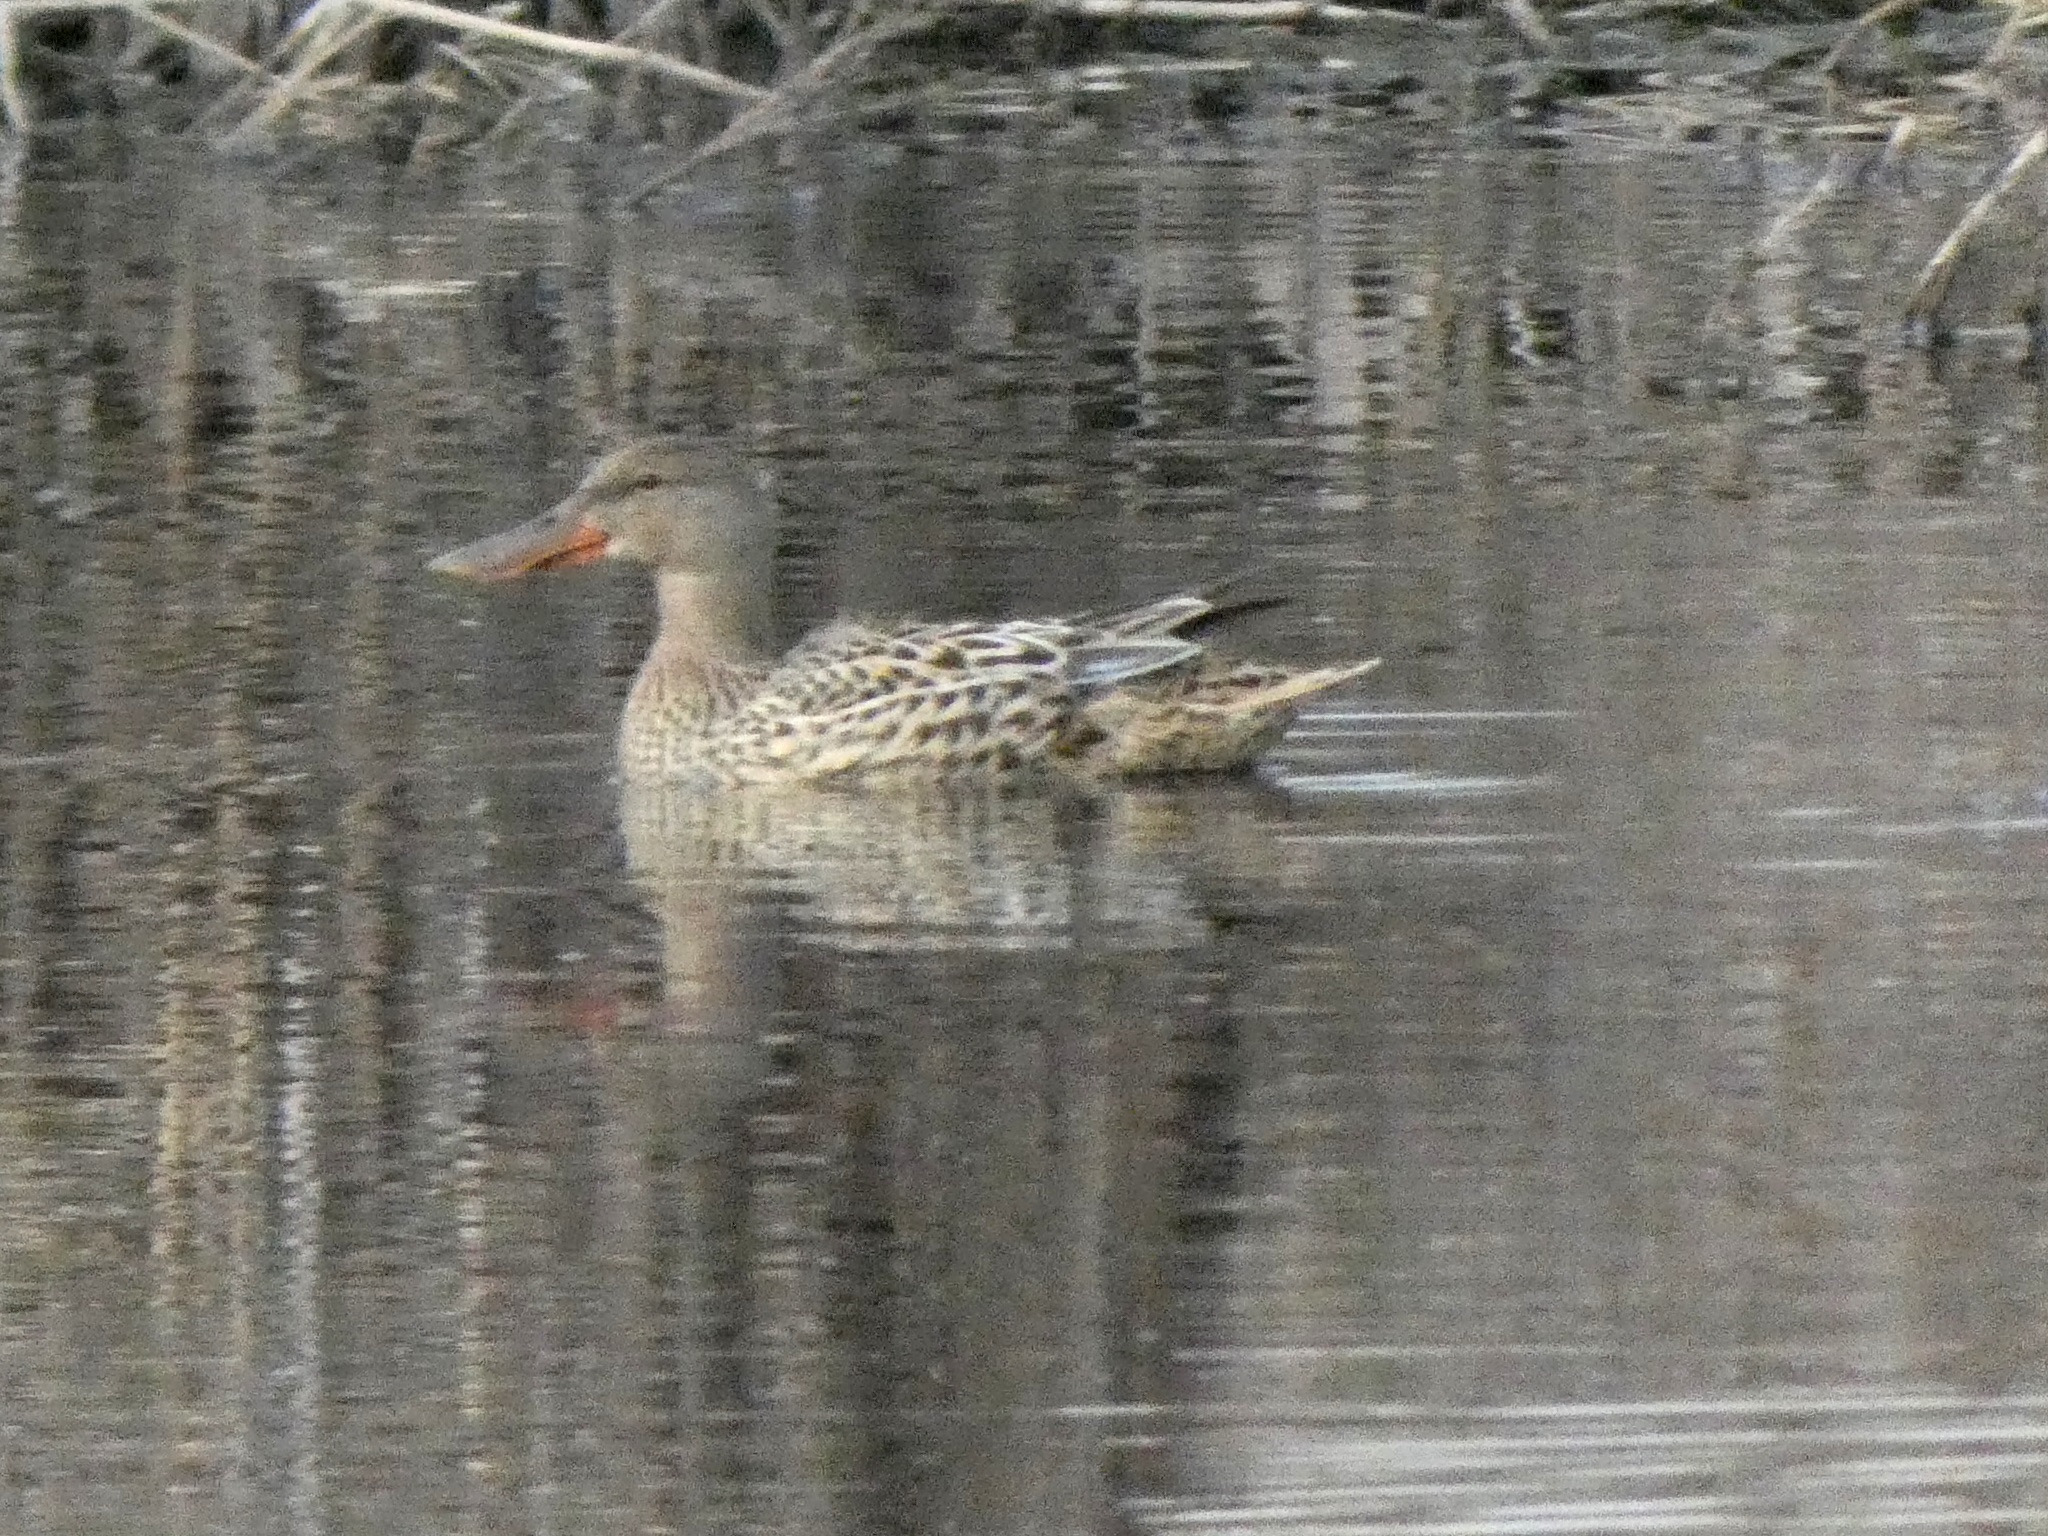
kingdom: Animalia
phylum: Chordata
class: Aves
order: Anseriformes
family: Anatidae
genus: Spatula
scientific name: Spatula clypeata
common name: Northern shoveler
